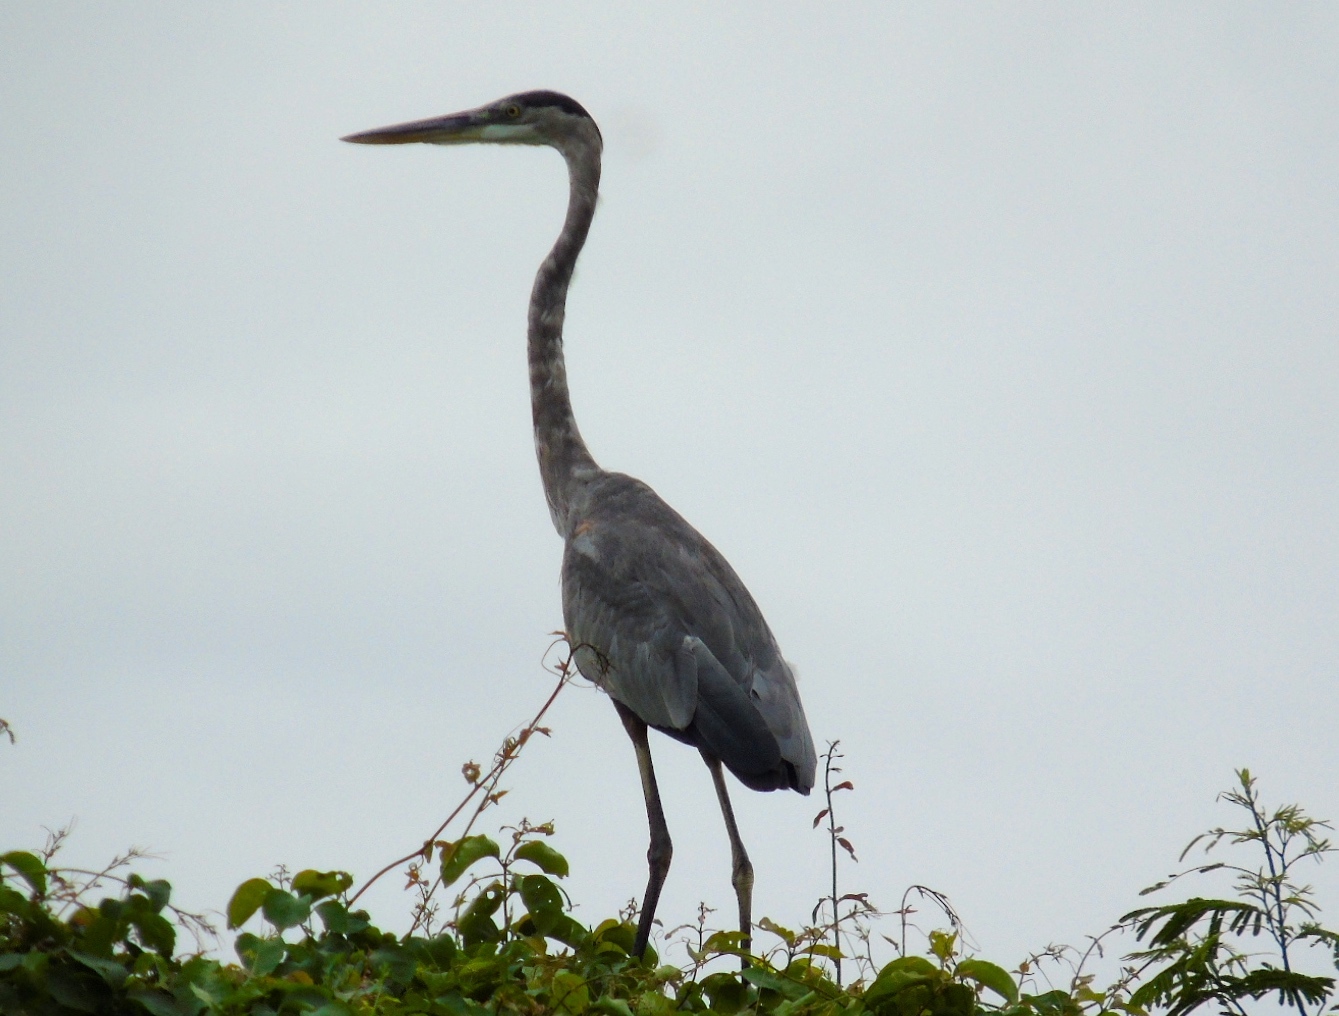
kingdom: Animalia
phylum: Chordata
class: Aves
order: Pelecaniformes
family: Ardeidae
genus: Ardea
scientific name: Ardea herodias
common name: Great blue heron
